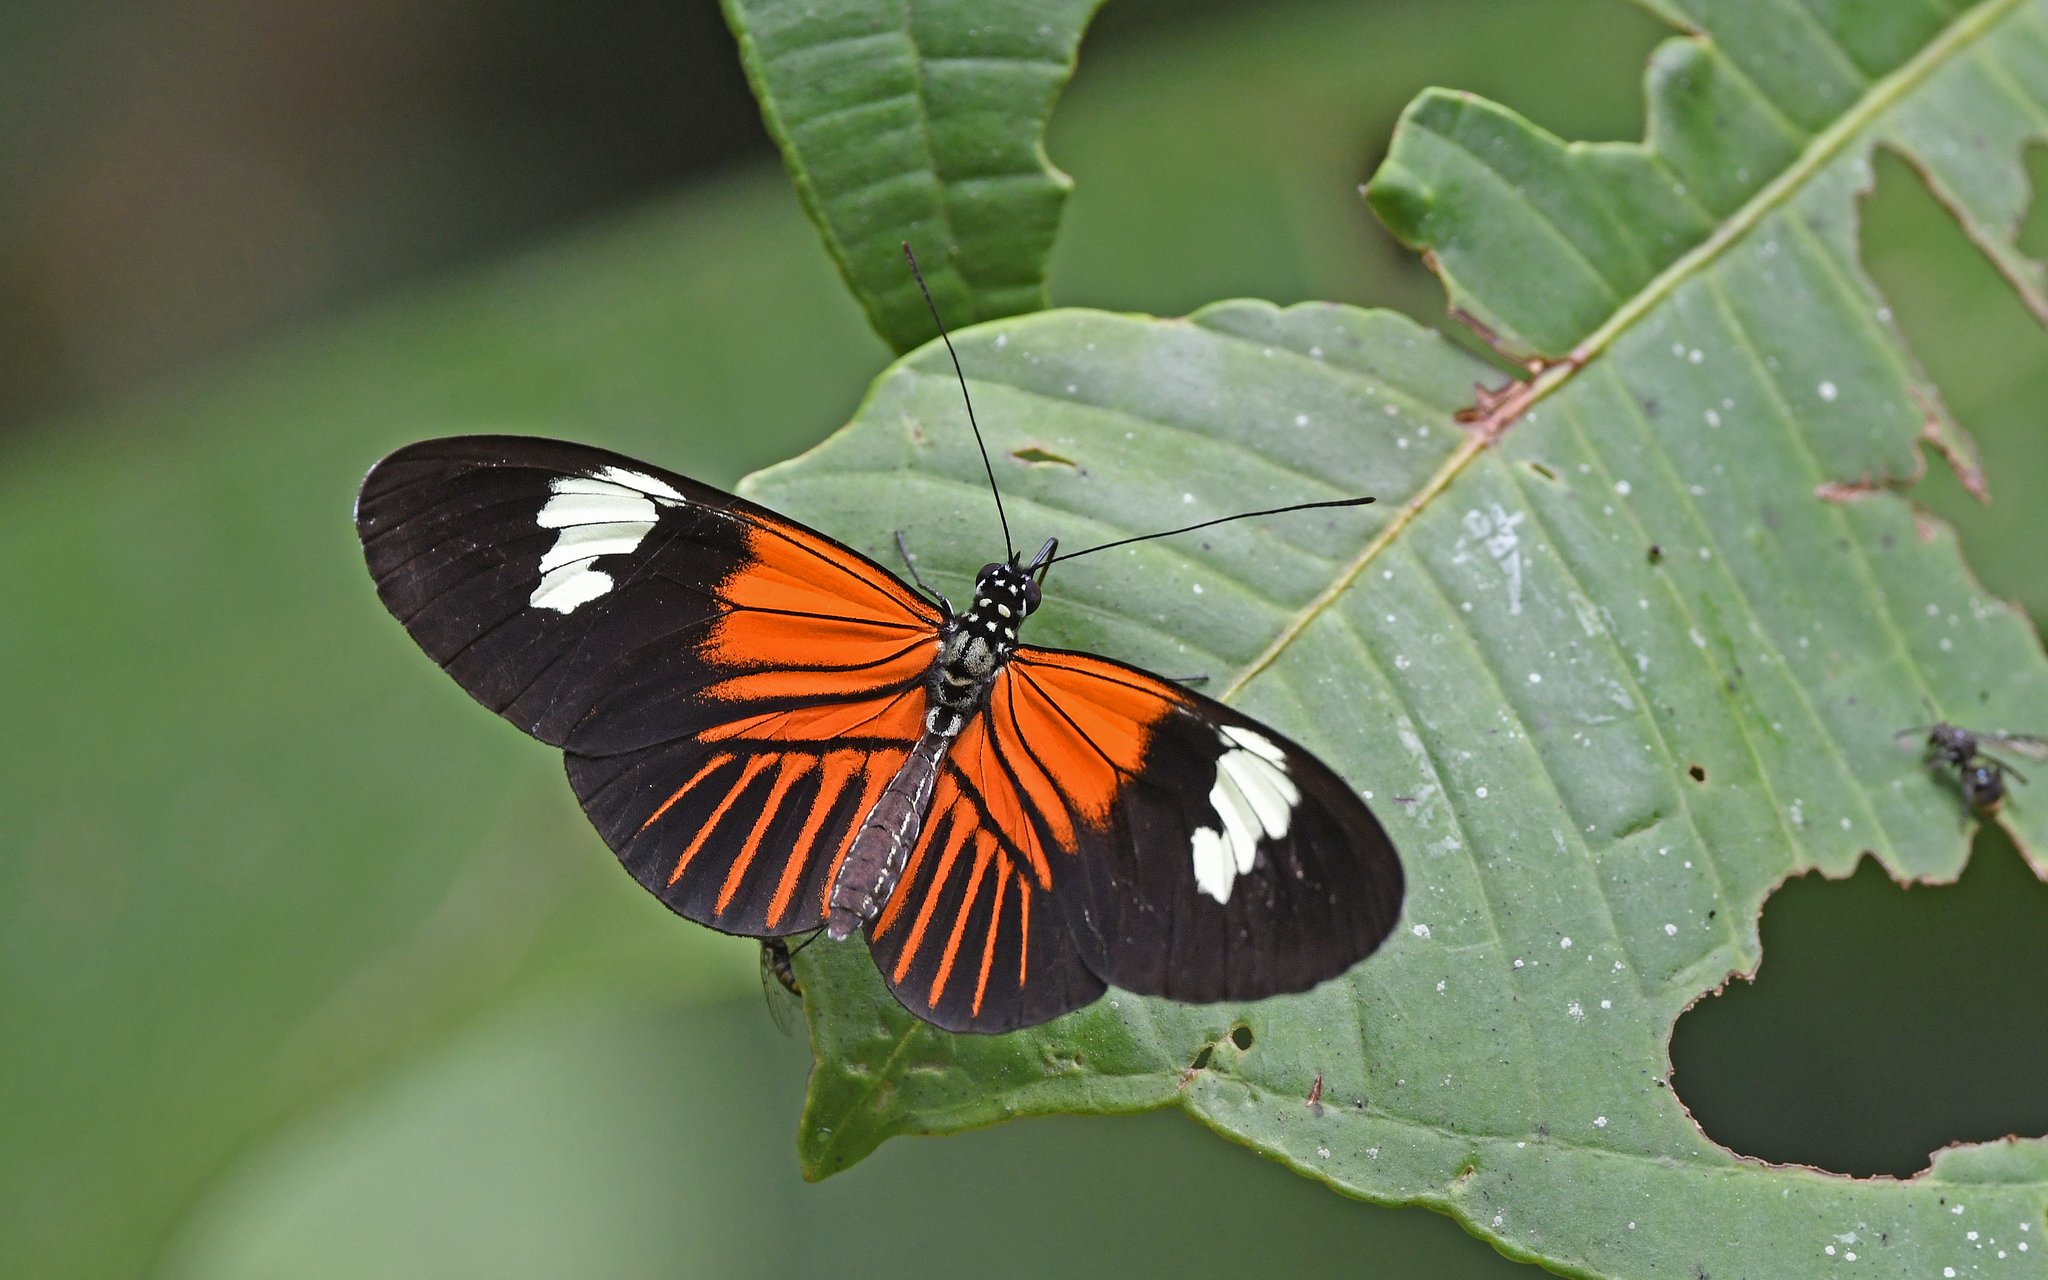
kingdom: Animalia
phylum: Arthropoda
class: Insecta
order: Lepidoptera
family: Nymphalidae
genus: Heliconius
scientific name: Heliconius melpomene
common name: Postman
